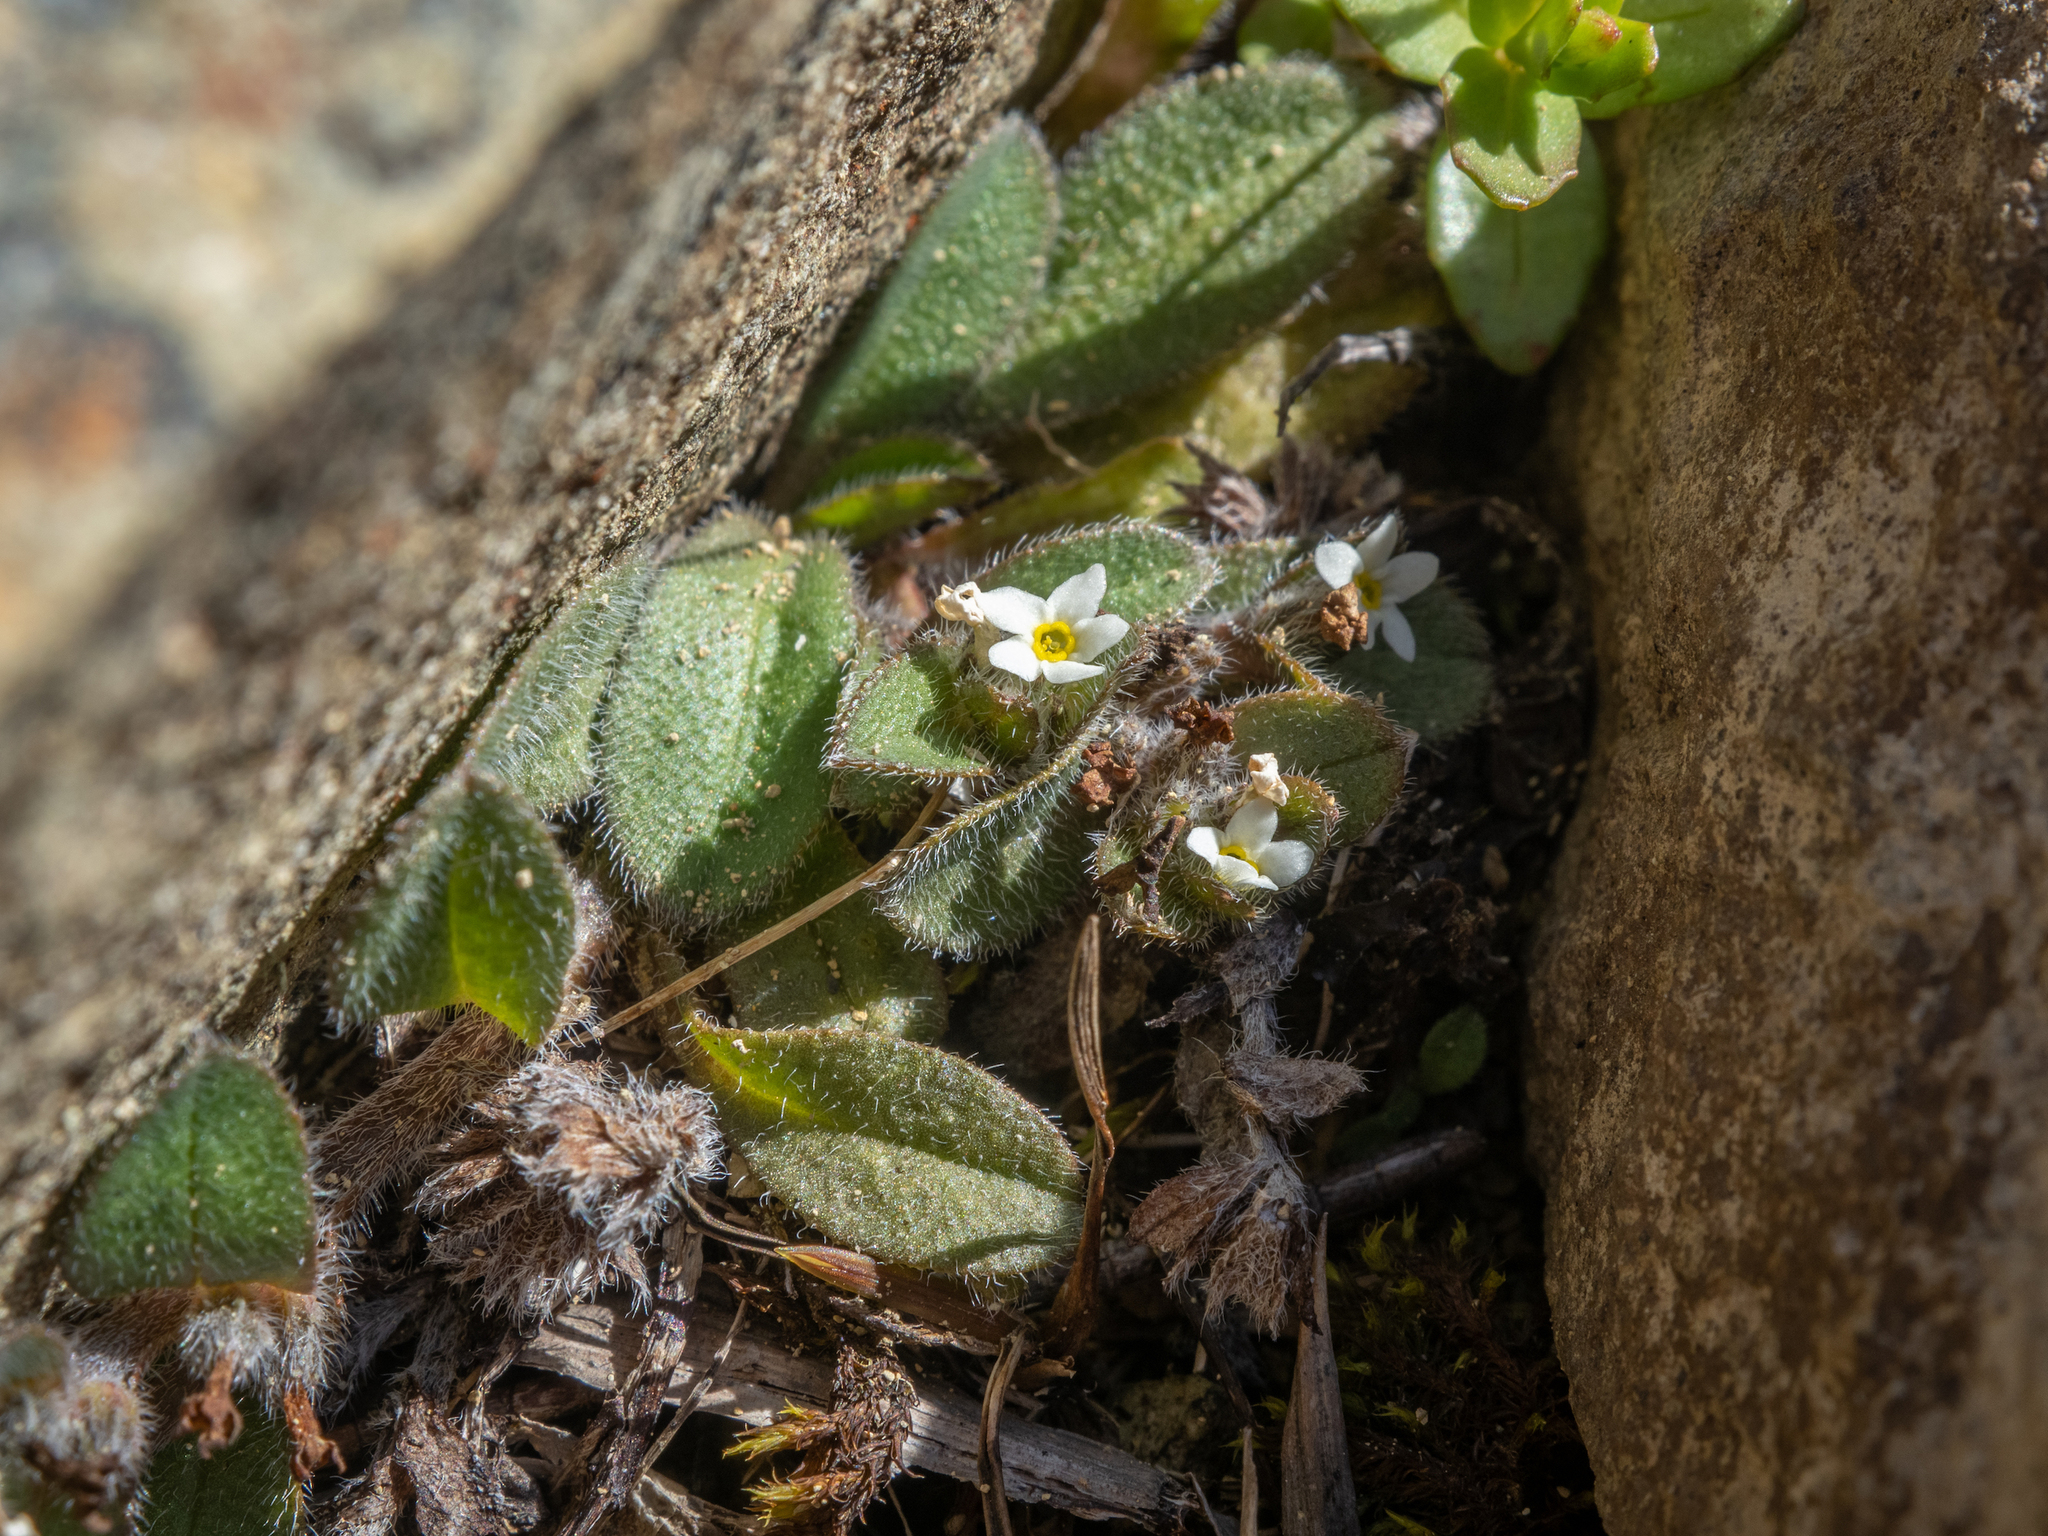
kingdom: Plantae
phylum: Tracheophyta
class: Magnoliopsida
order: Boraginales
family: Boraginaceae
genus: Myosotis
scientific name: Myosotis antarctica
